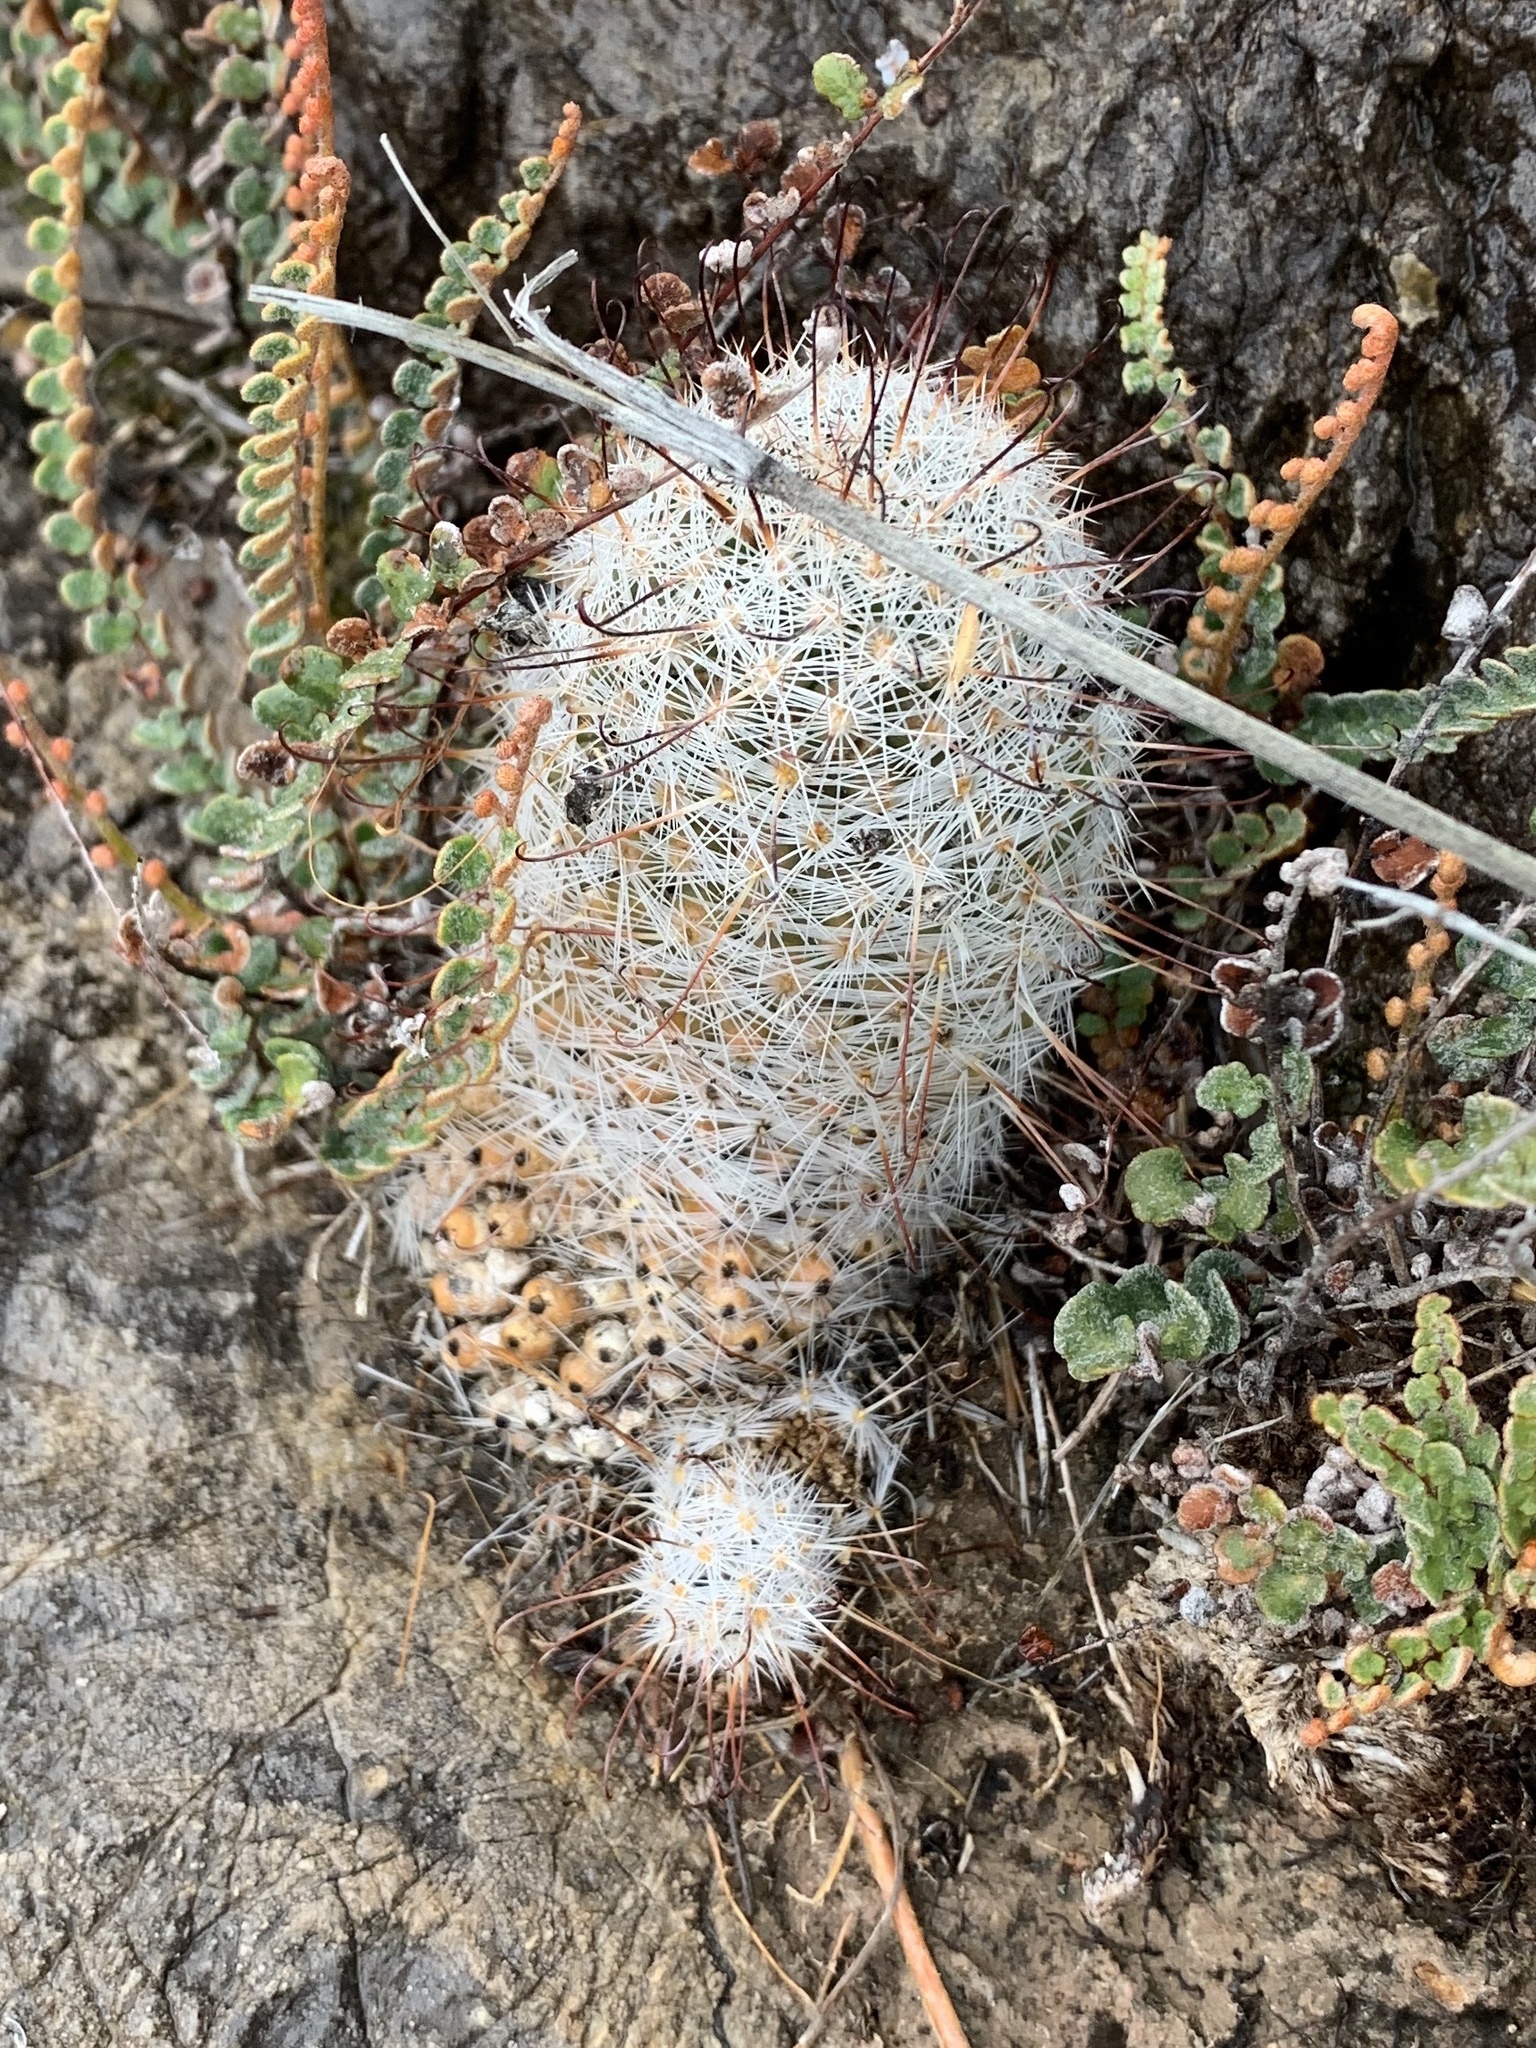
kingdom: Plantae
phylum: Tracheophyta
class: Magnoliopsida
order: Caryophyllales
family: Cactaceae
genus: Cochemiea
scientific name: Cochemiea grahamii
